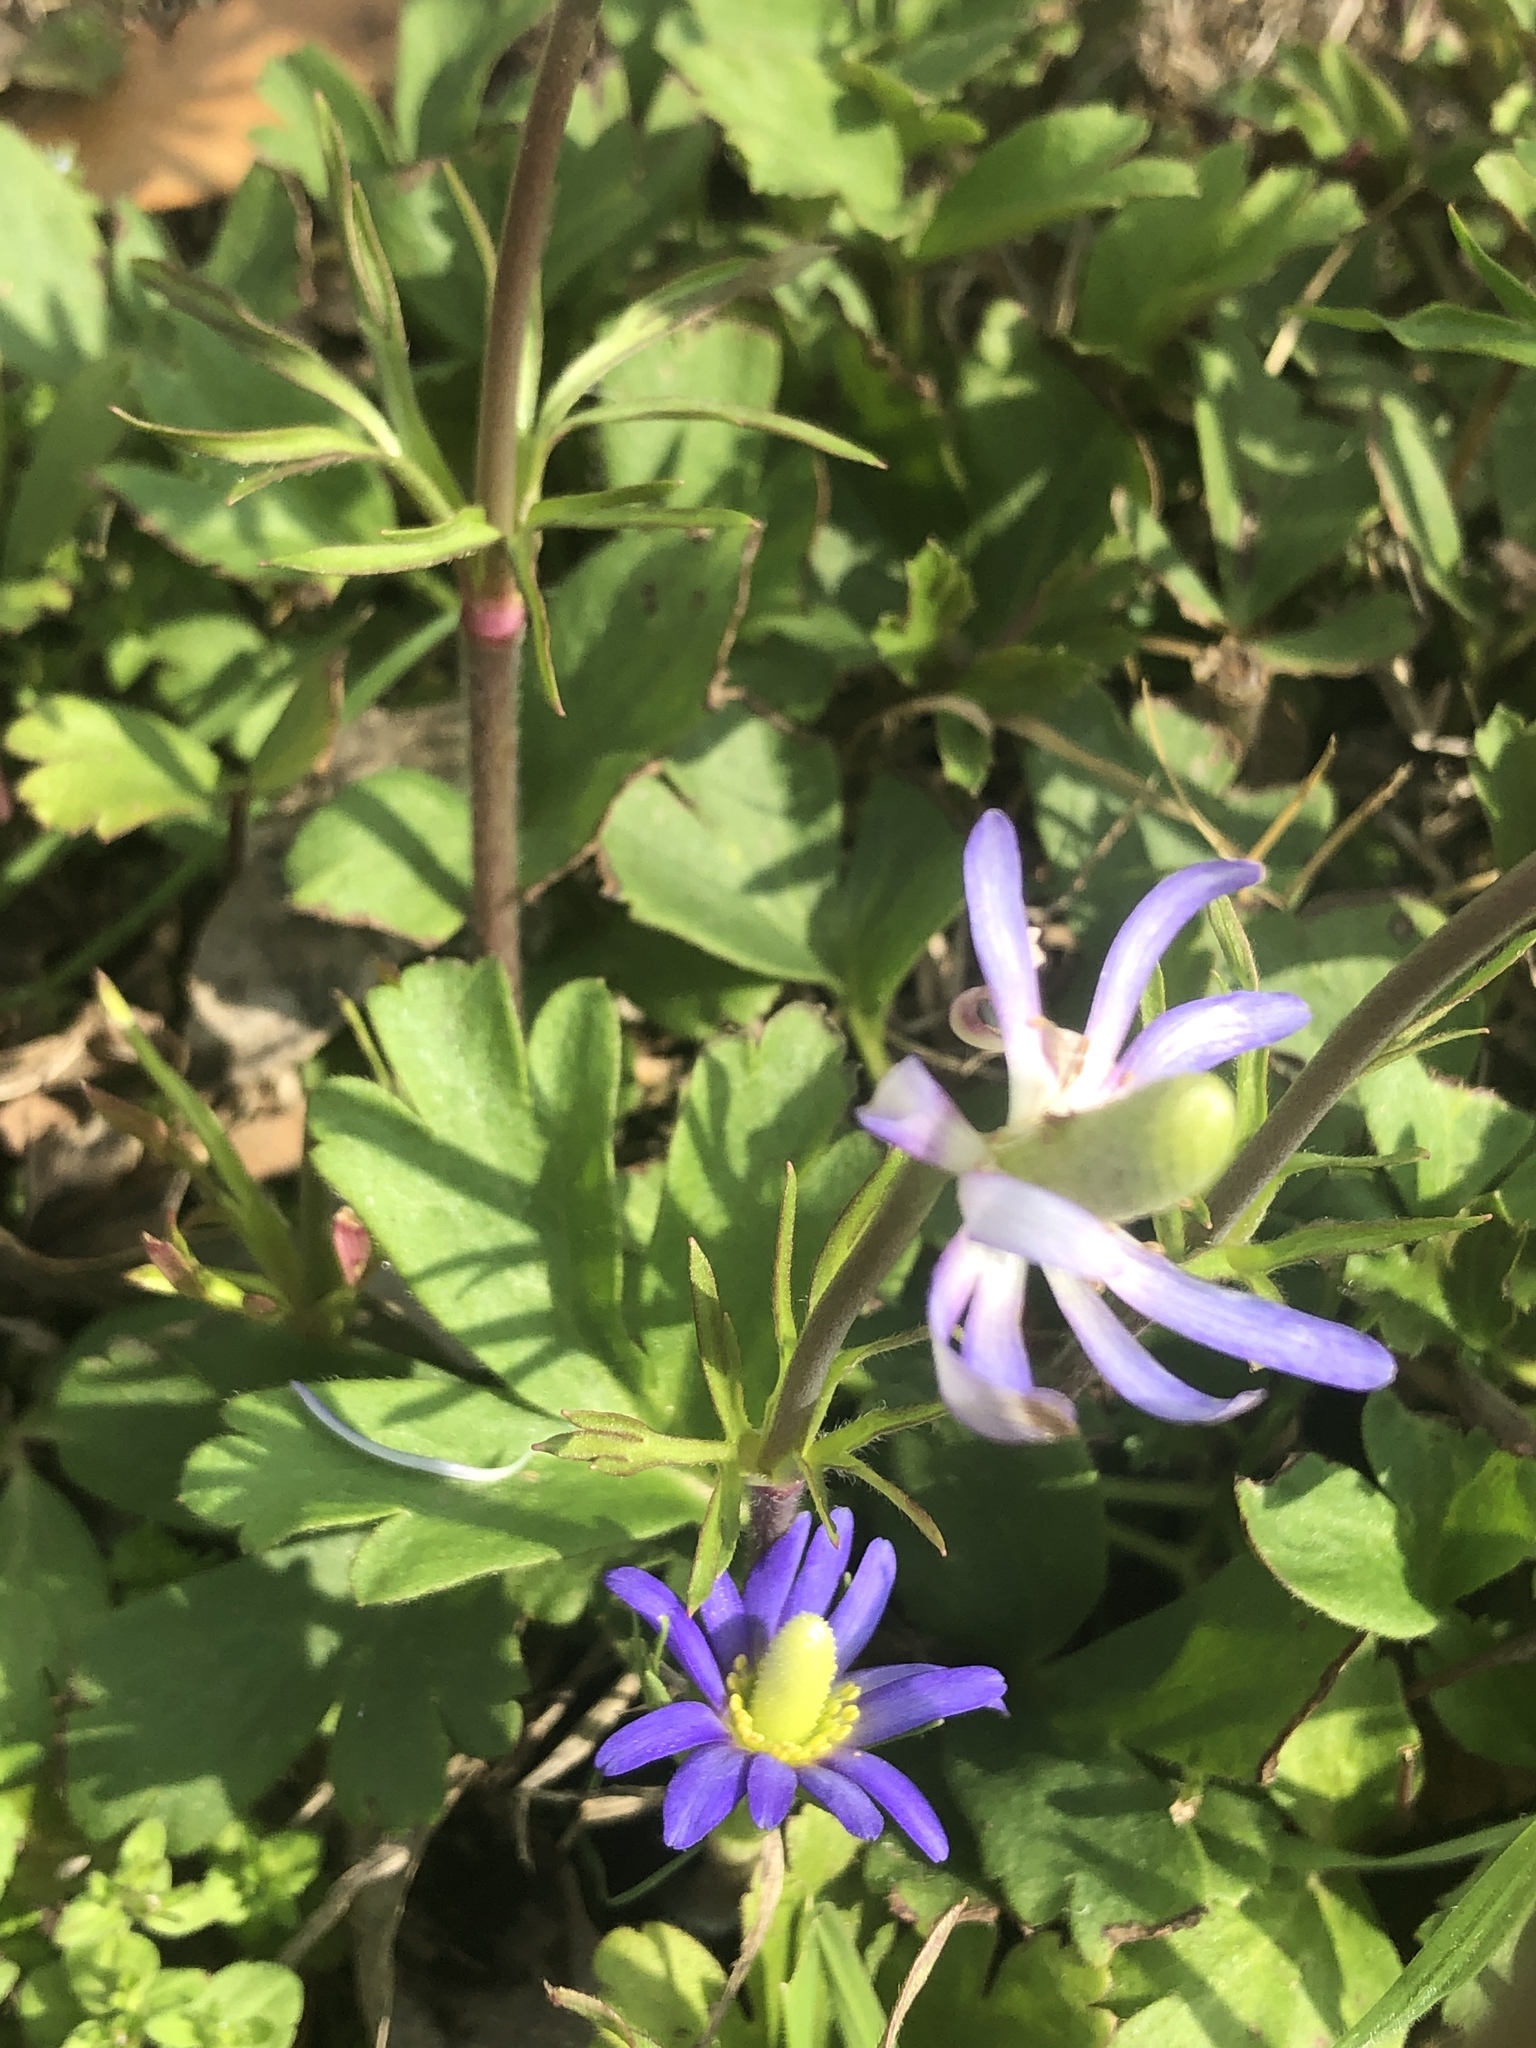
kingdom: Plantae
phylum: Tracheophyta
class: Magnoliopsida
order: Ranunculales
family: Ranunculaceae
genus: Anemone
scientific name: Anemone berlandieri
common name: Ten-petal anemone
